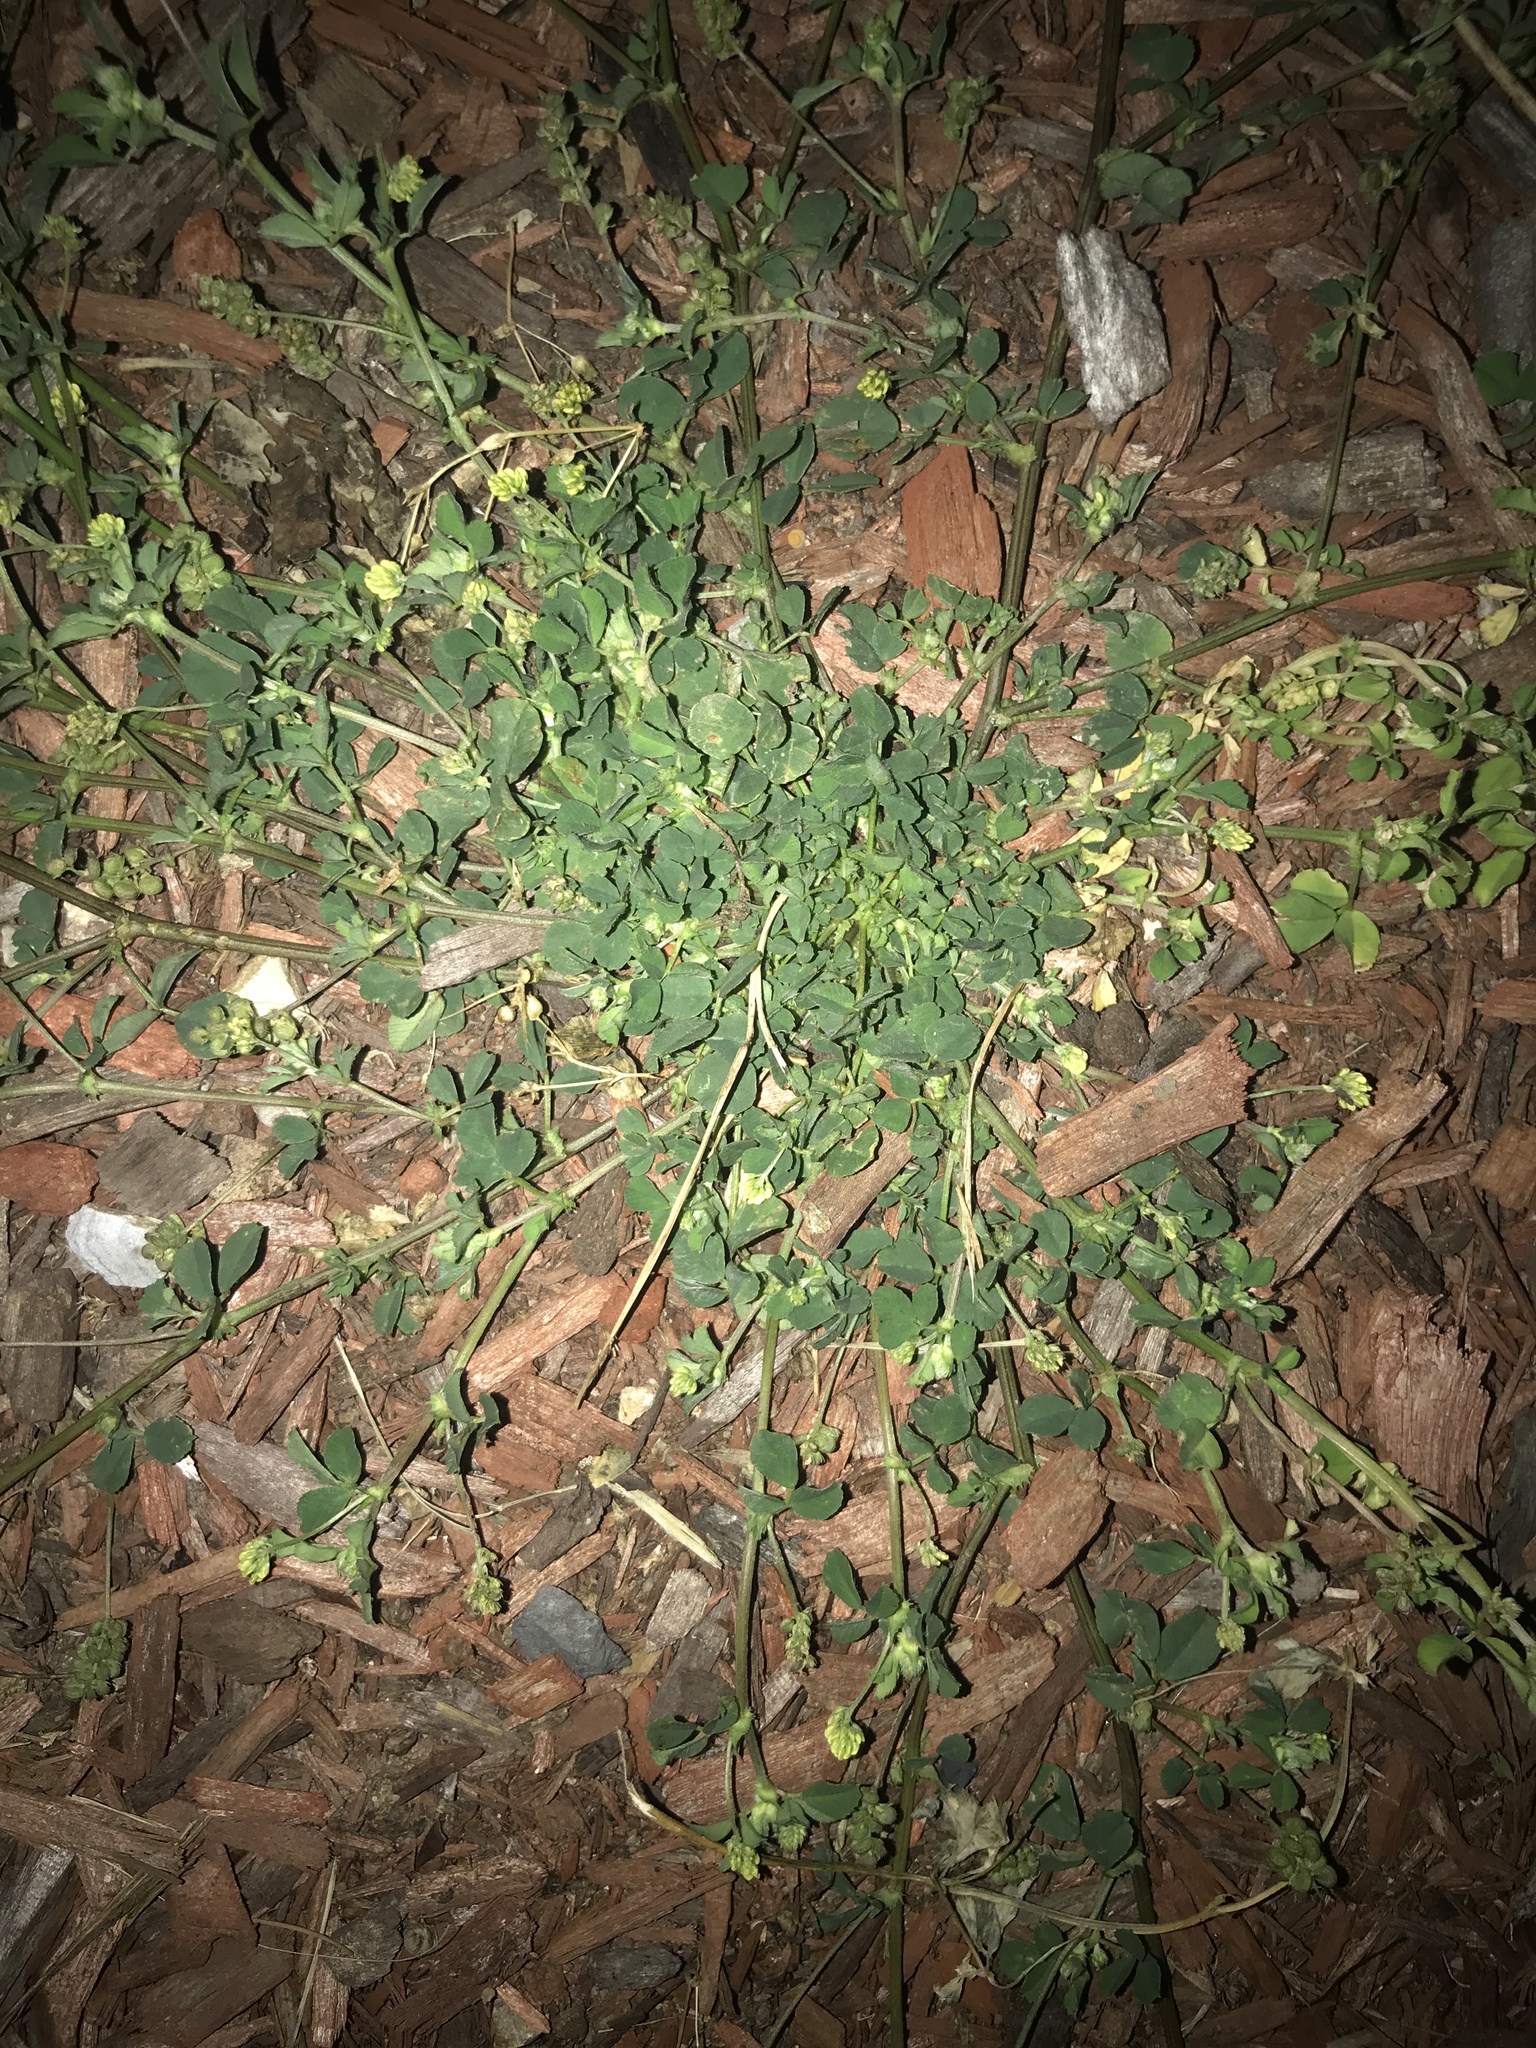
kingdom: Plantae
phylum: Tracheophyta
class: Magnoliopsida
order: Fabales
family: Fabaceae
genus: Medicago
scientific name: Medicago lupulina
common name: Black medick
